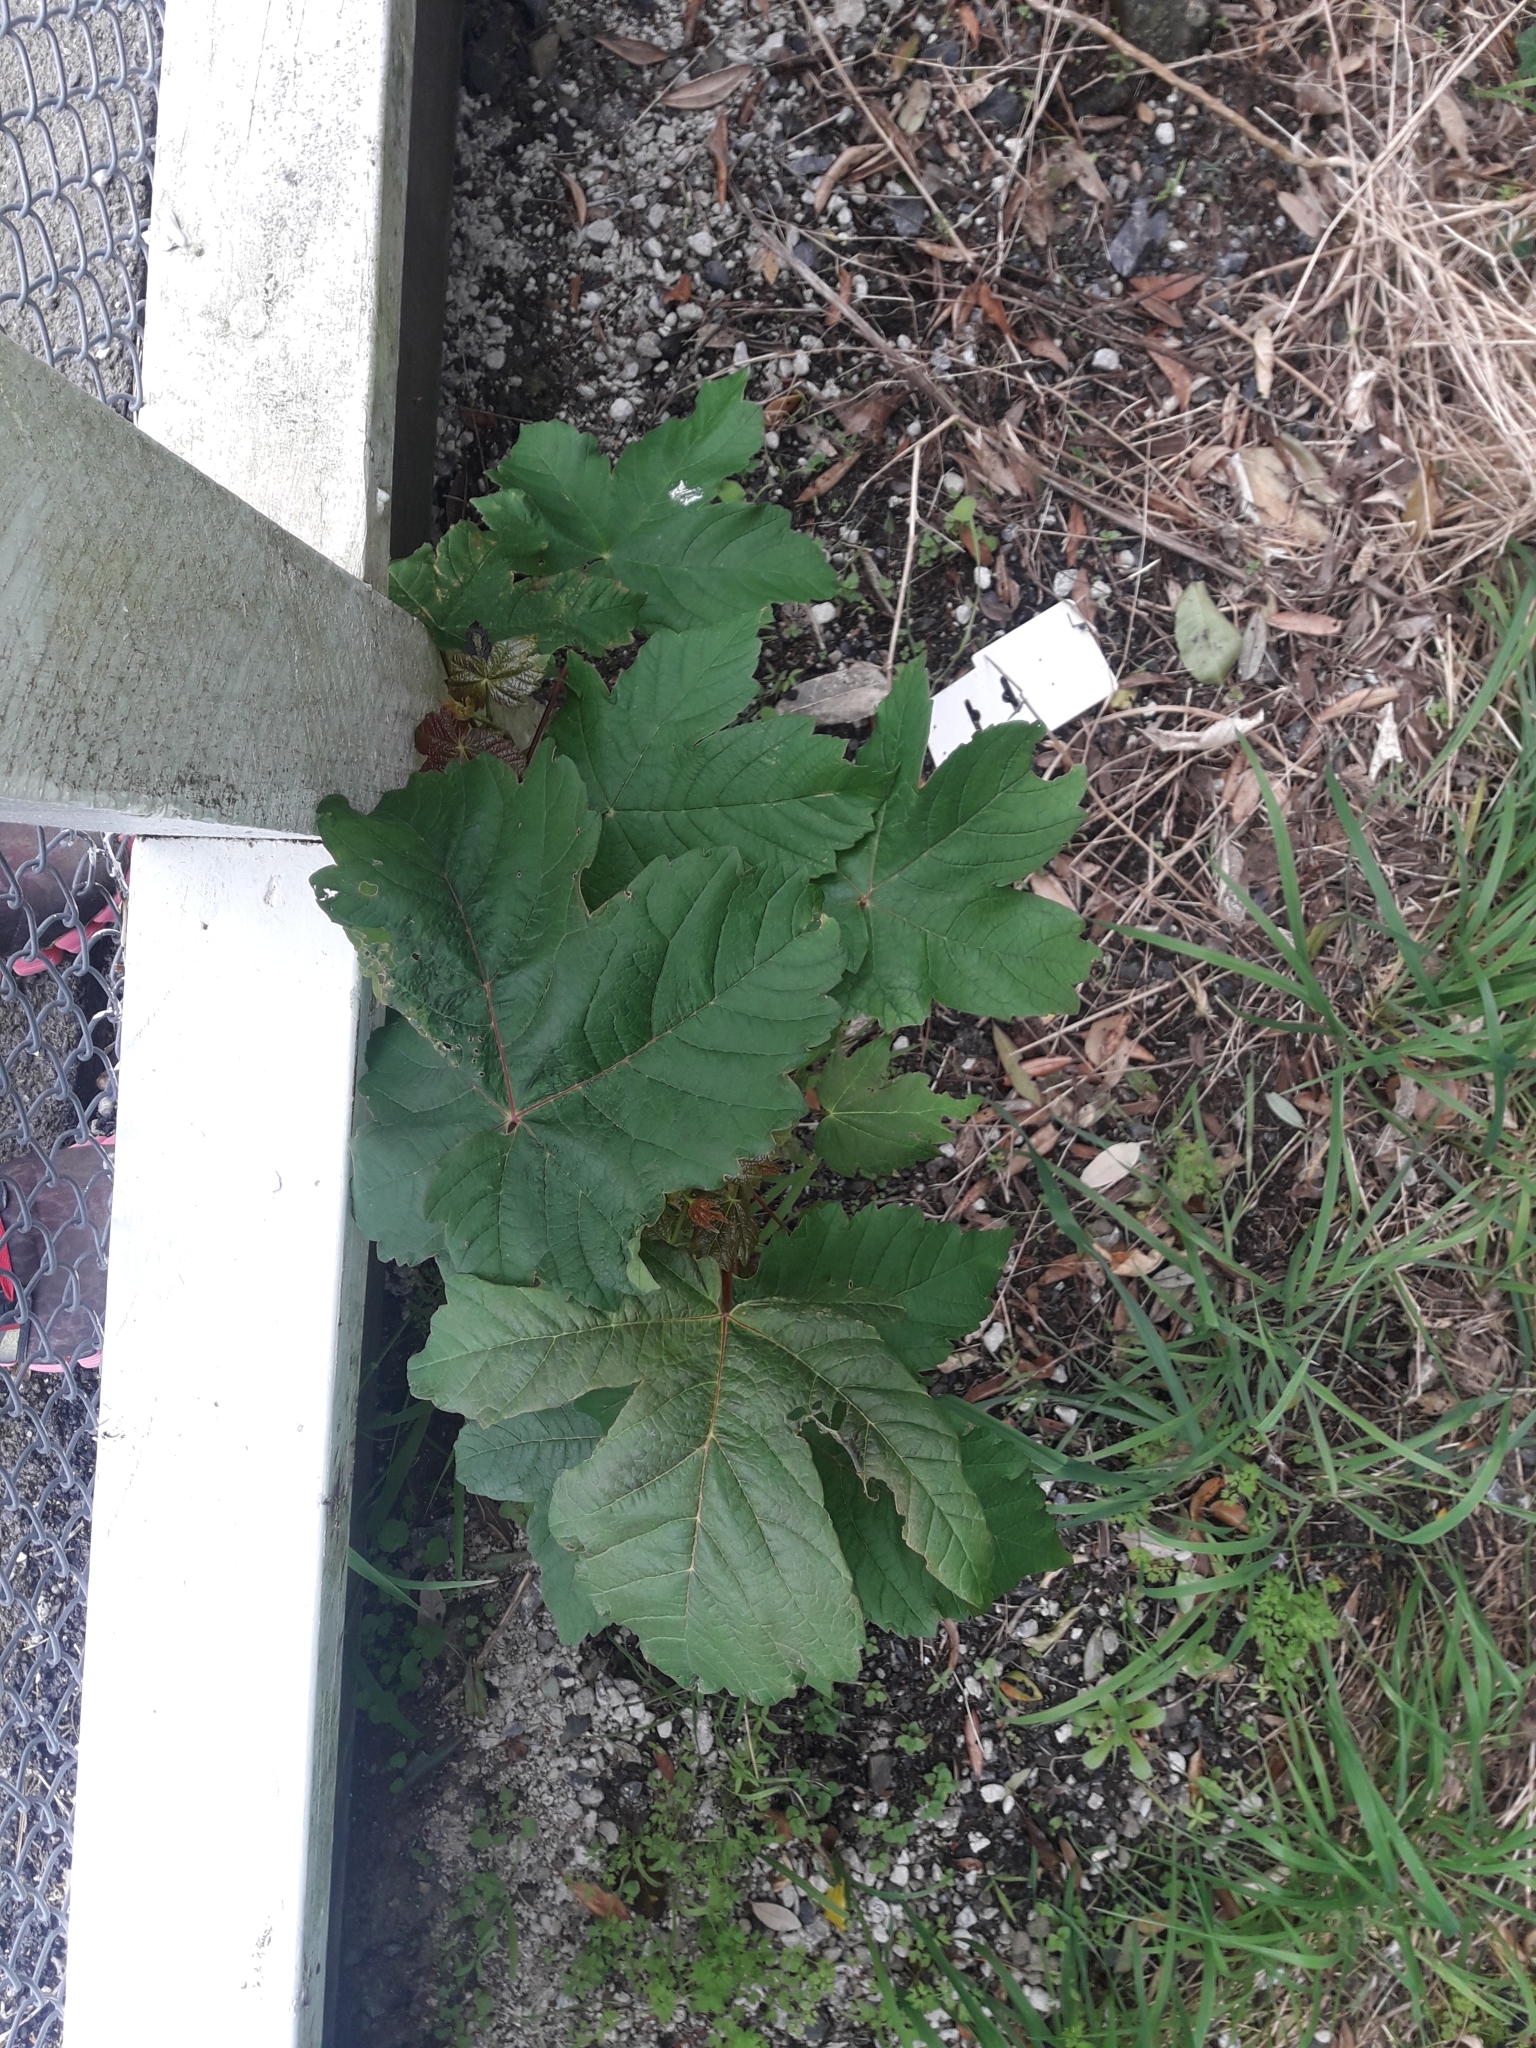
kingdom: Plantae
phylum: Tracheophyta
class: Magnoliopsida
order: Sapindales
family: Sapindaceae
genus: Acer
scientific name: Acer pseudoplatanus
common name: Sycamore
